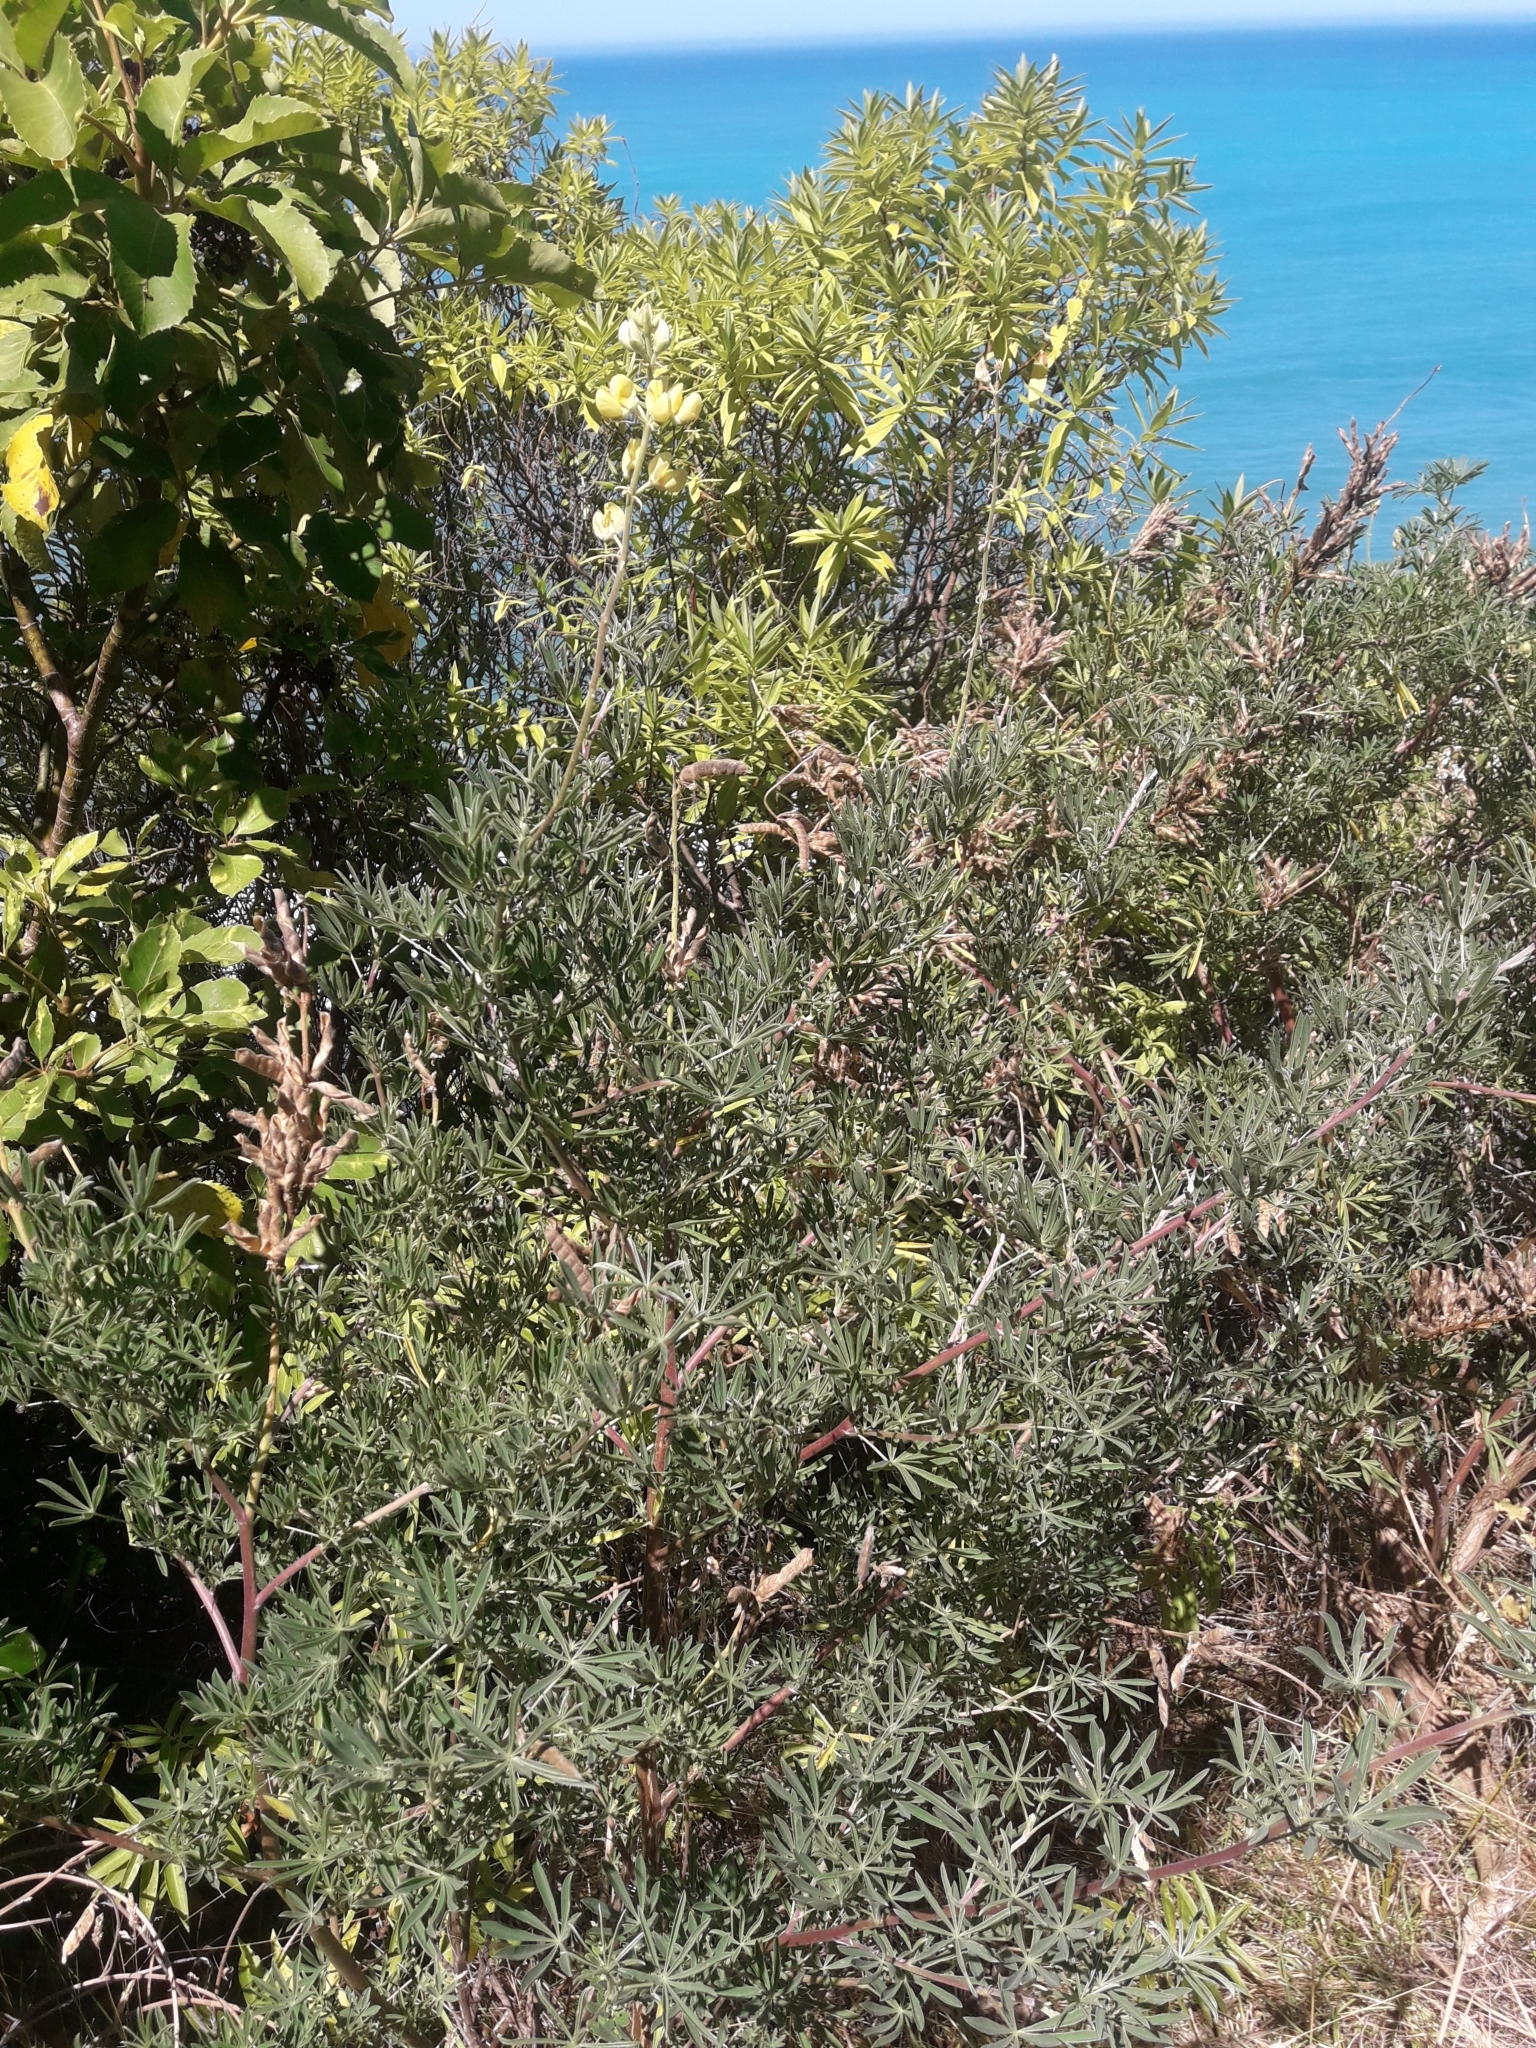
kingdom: Plantae
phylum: Tracheophyta
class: Magnoliopsida
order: Fabales
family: Fabaceae
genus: Lupinus
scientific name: Lupinus arboreus
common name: Yellow bush lupine
